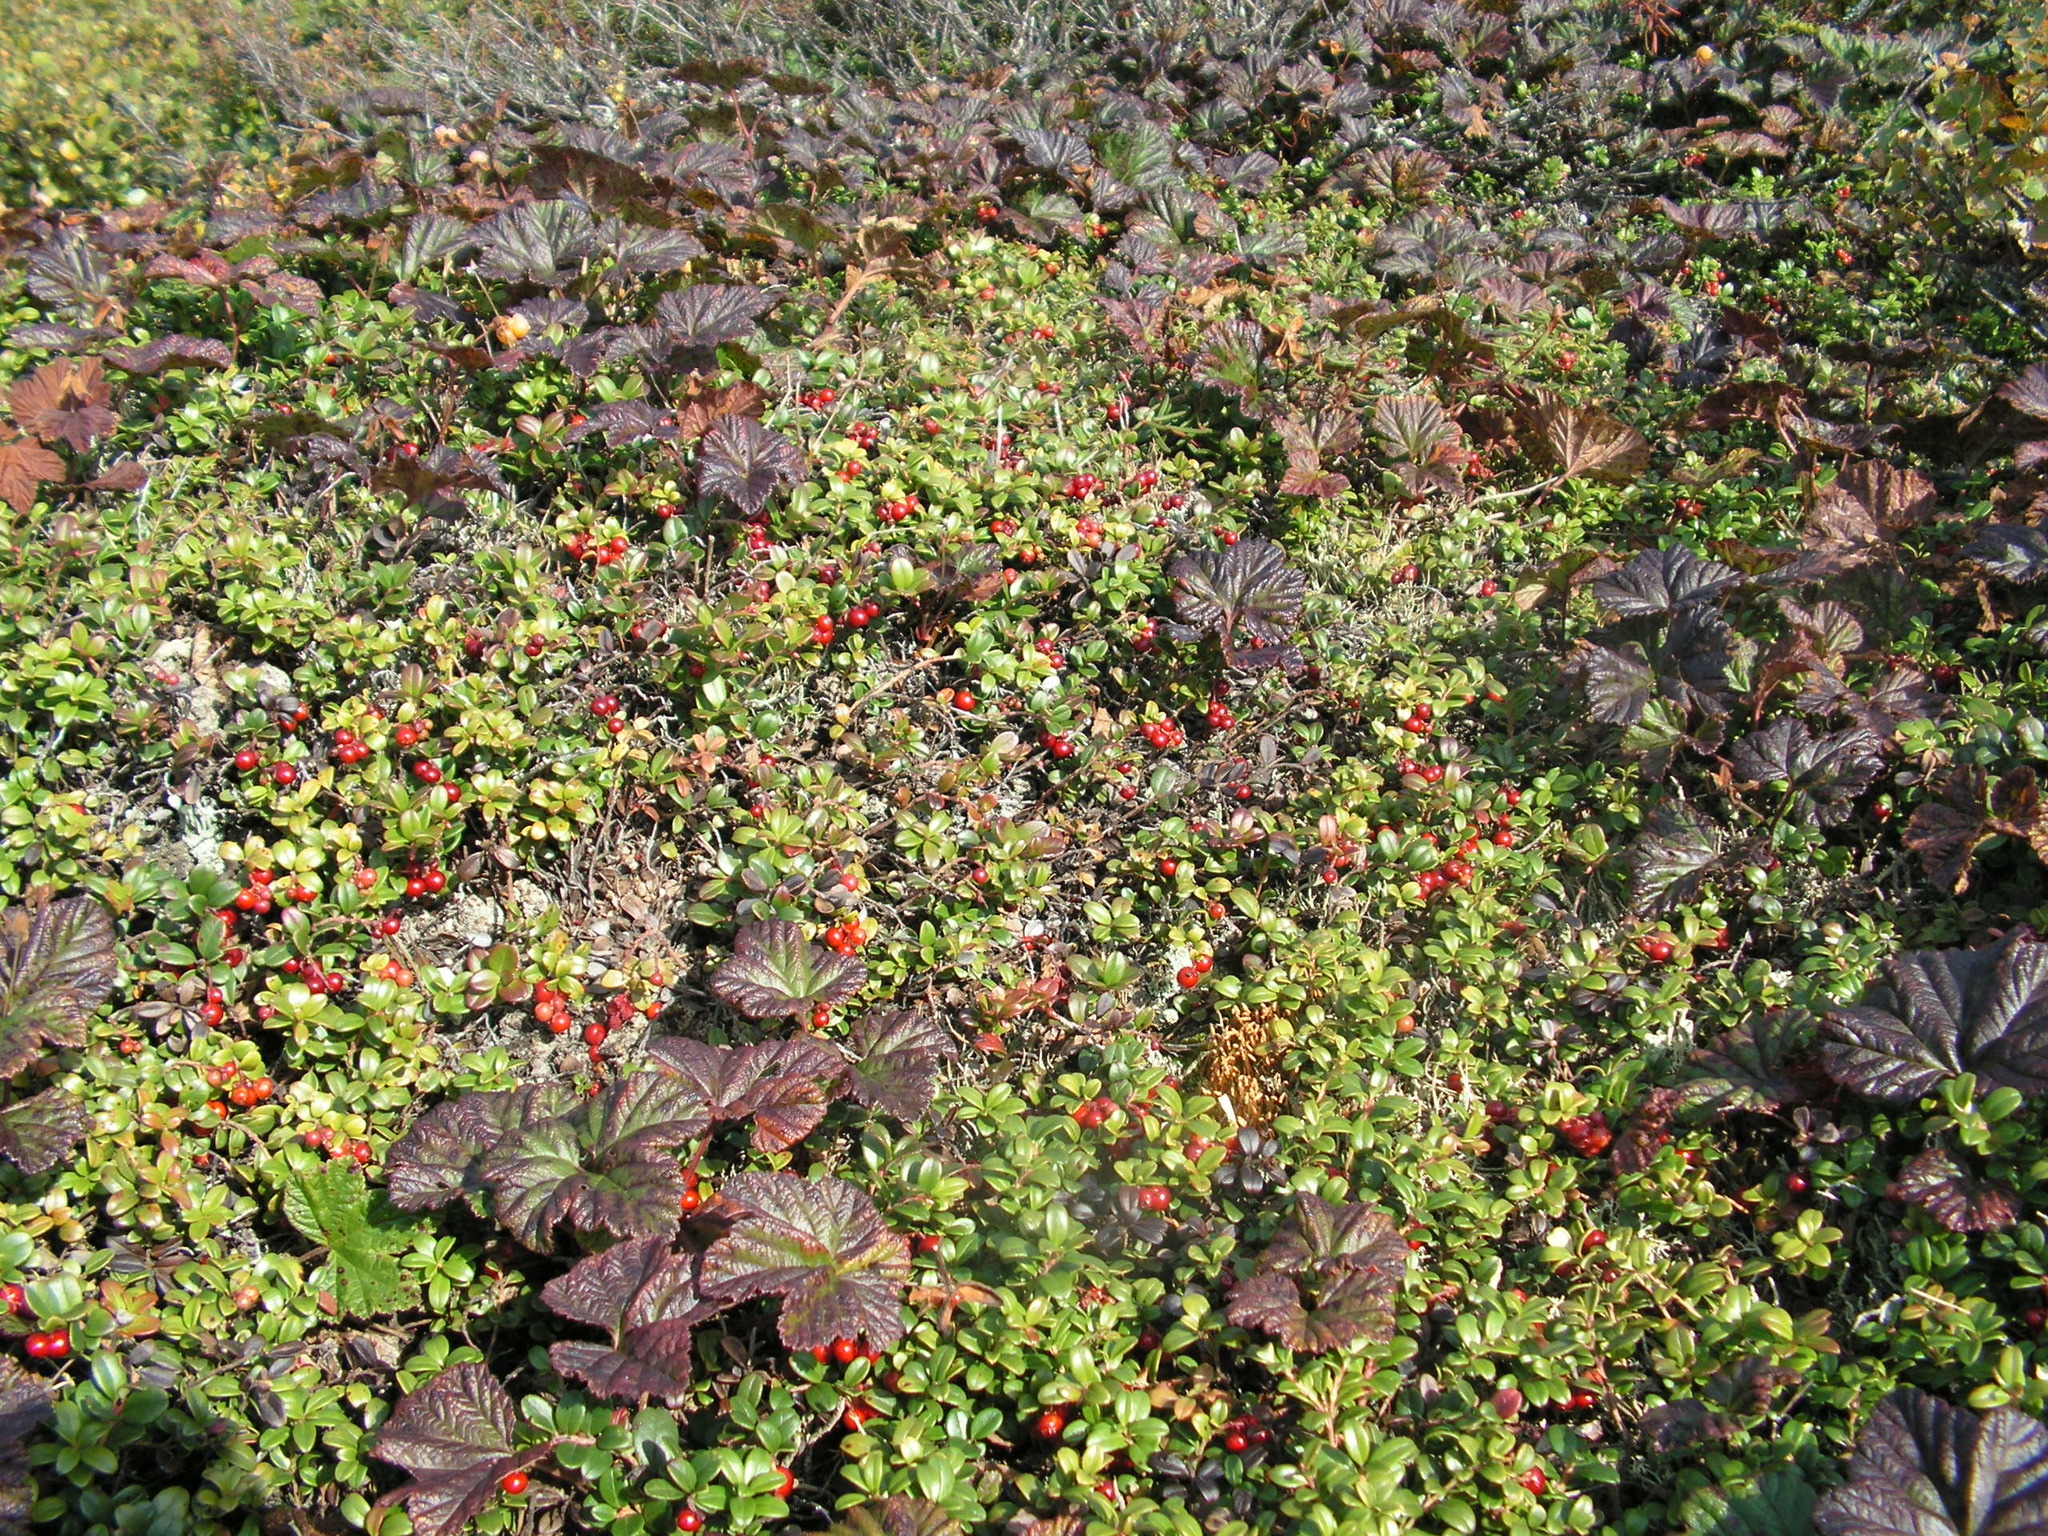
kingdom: Plantae
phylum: Tracheophyta
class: Magnoliopsida
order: Rosales
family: Rosaceae
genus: Rubus
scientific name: Rubus chamaemorus
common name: Cloudberry
